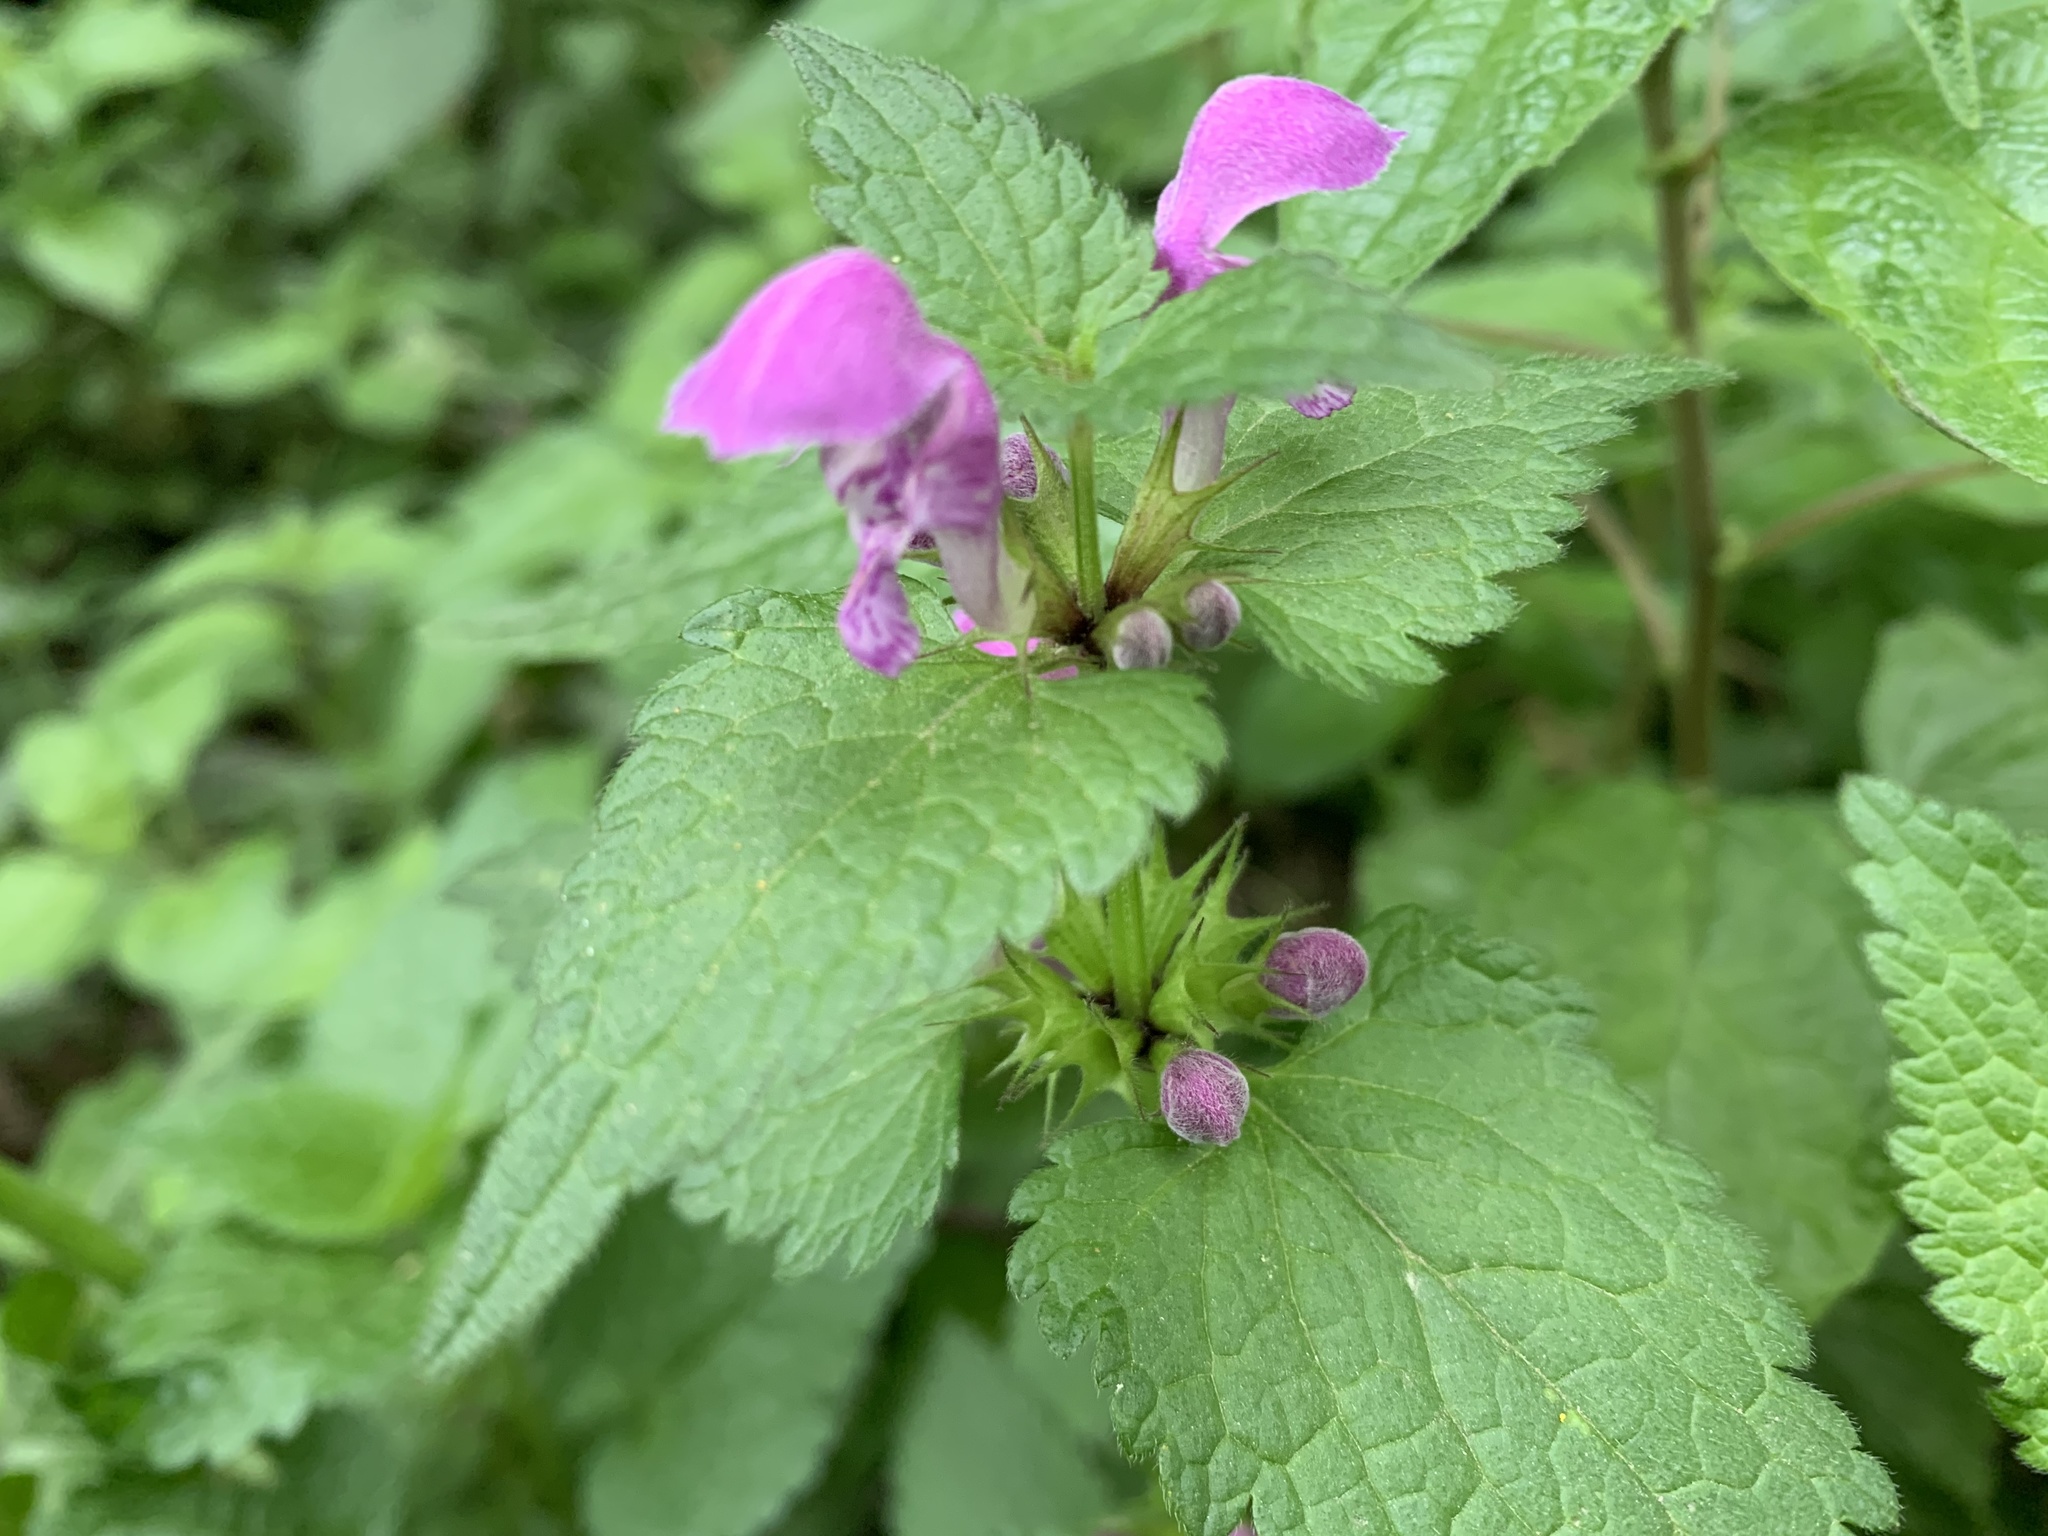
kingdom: Plantae
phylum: Tracheophyta
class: Magnoliopsida
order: Lamiales
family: Lamiaceae
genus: Lamium
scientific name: Lamium maculatum
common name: Spotted dead-nettle
